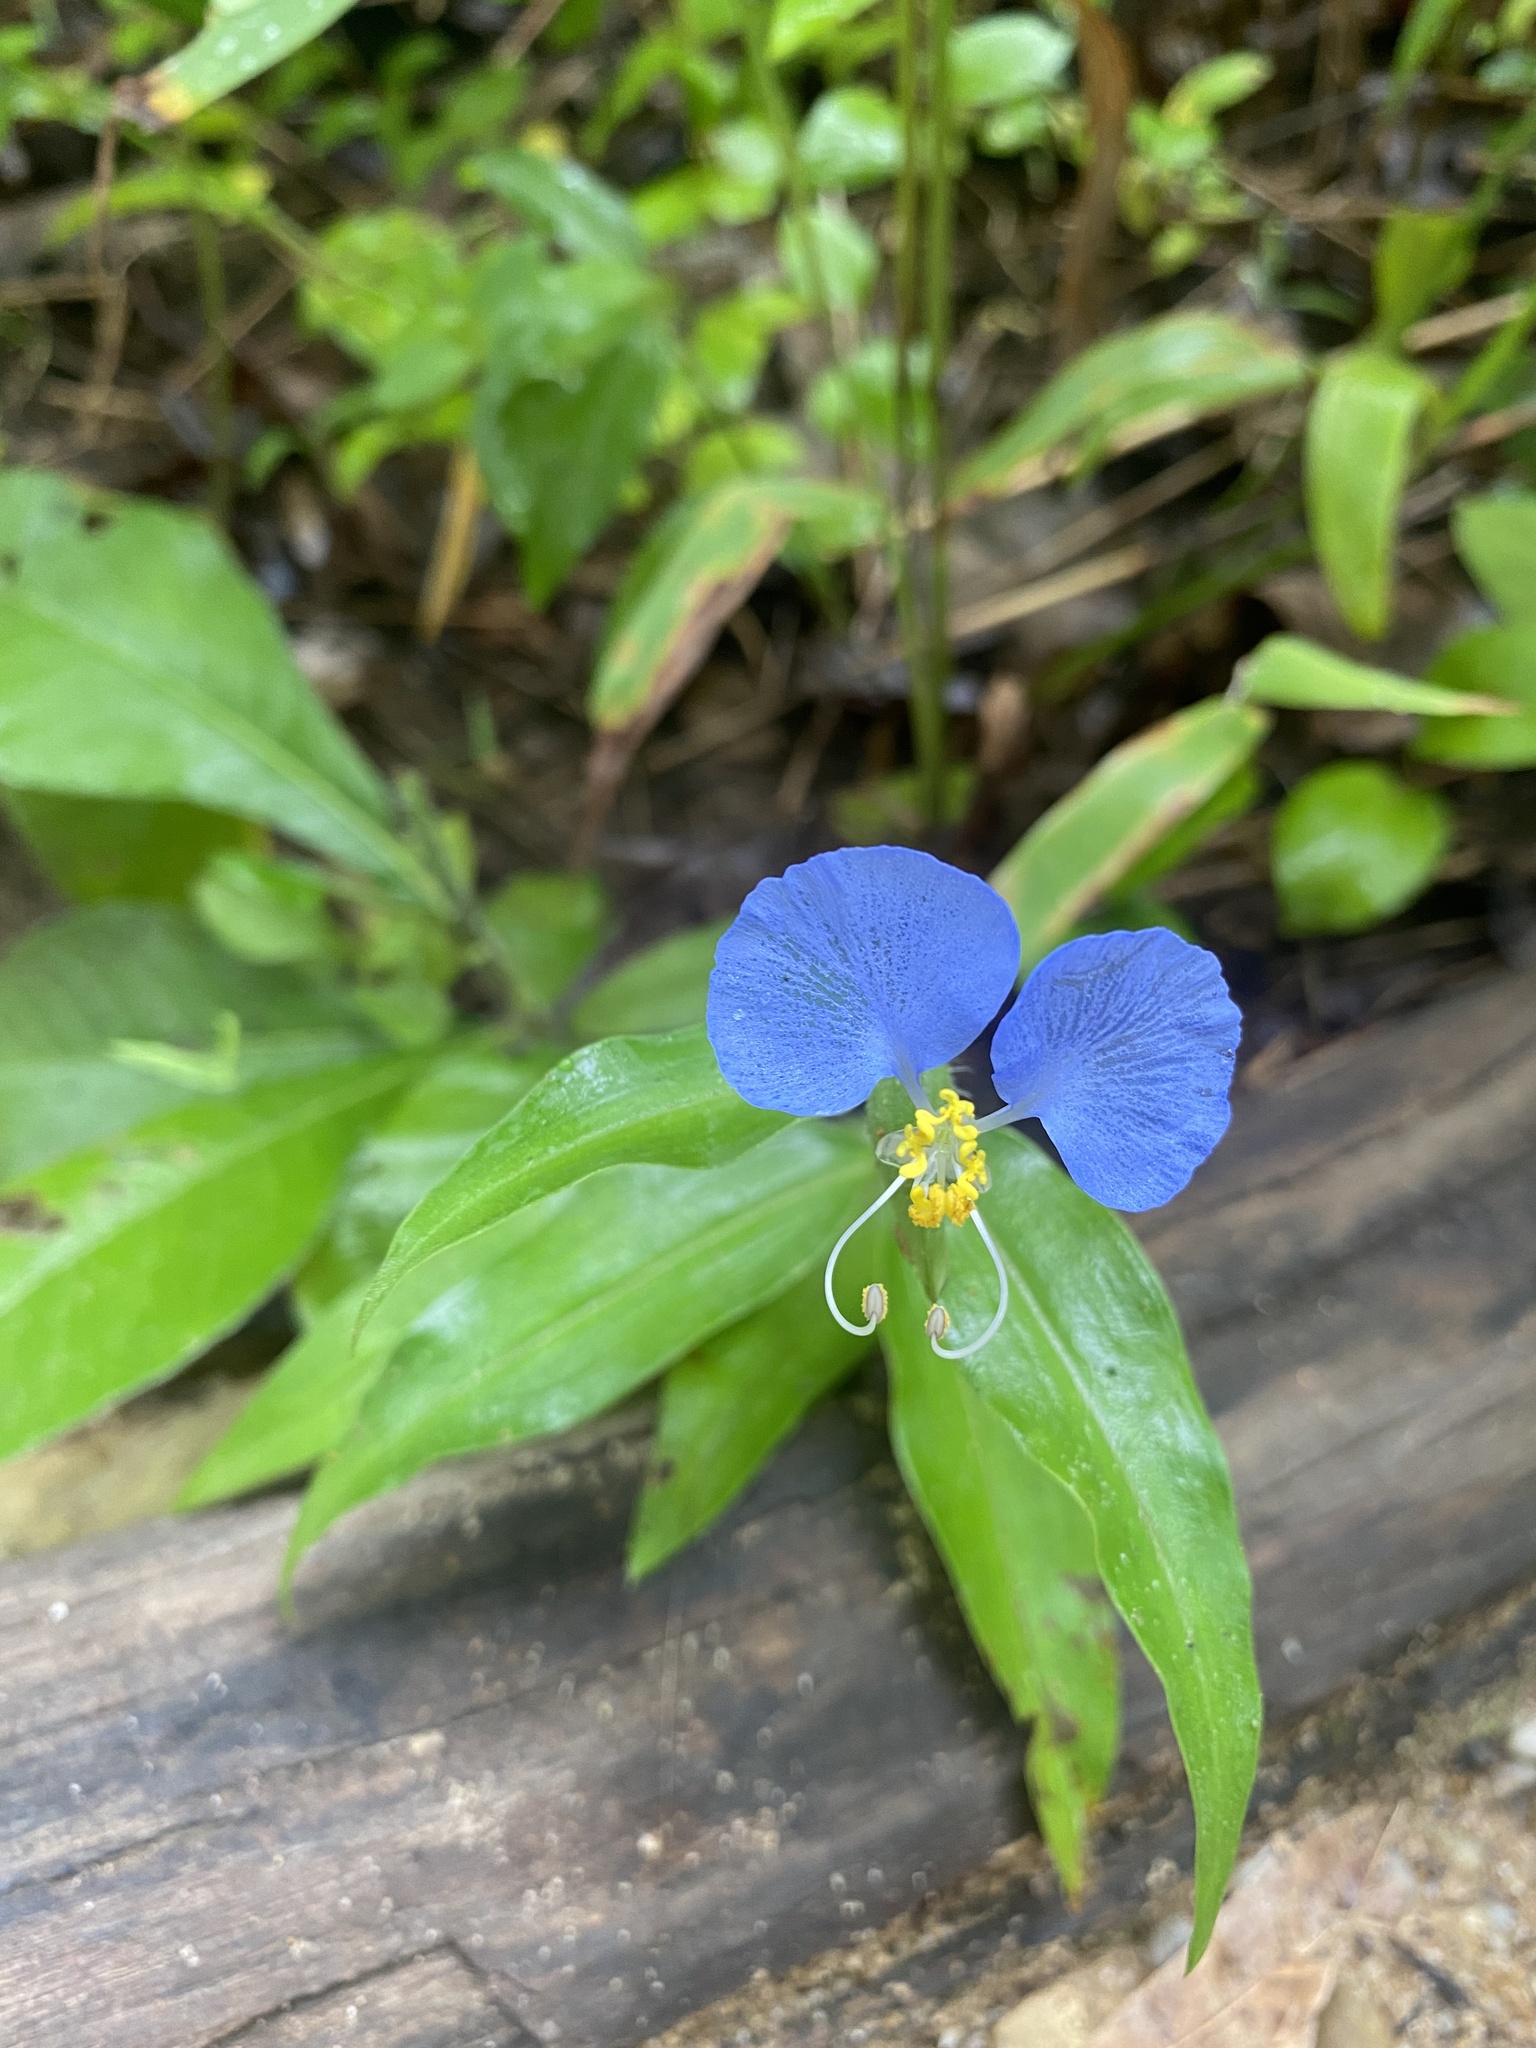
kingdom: Plantae
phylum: Tracheophyta
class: Liliopsida
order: Commelinales
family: Commelinaceae
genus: Commelina
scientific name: Commelina communis
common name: Asiatic dayflower
